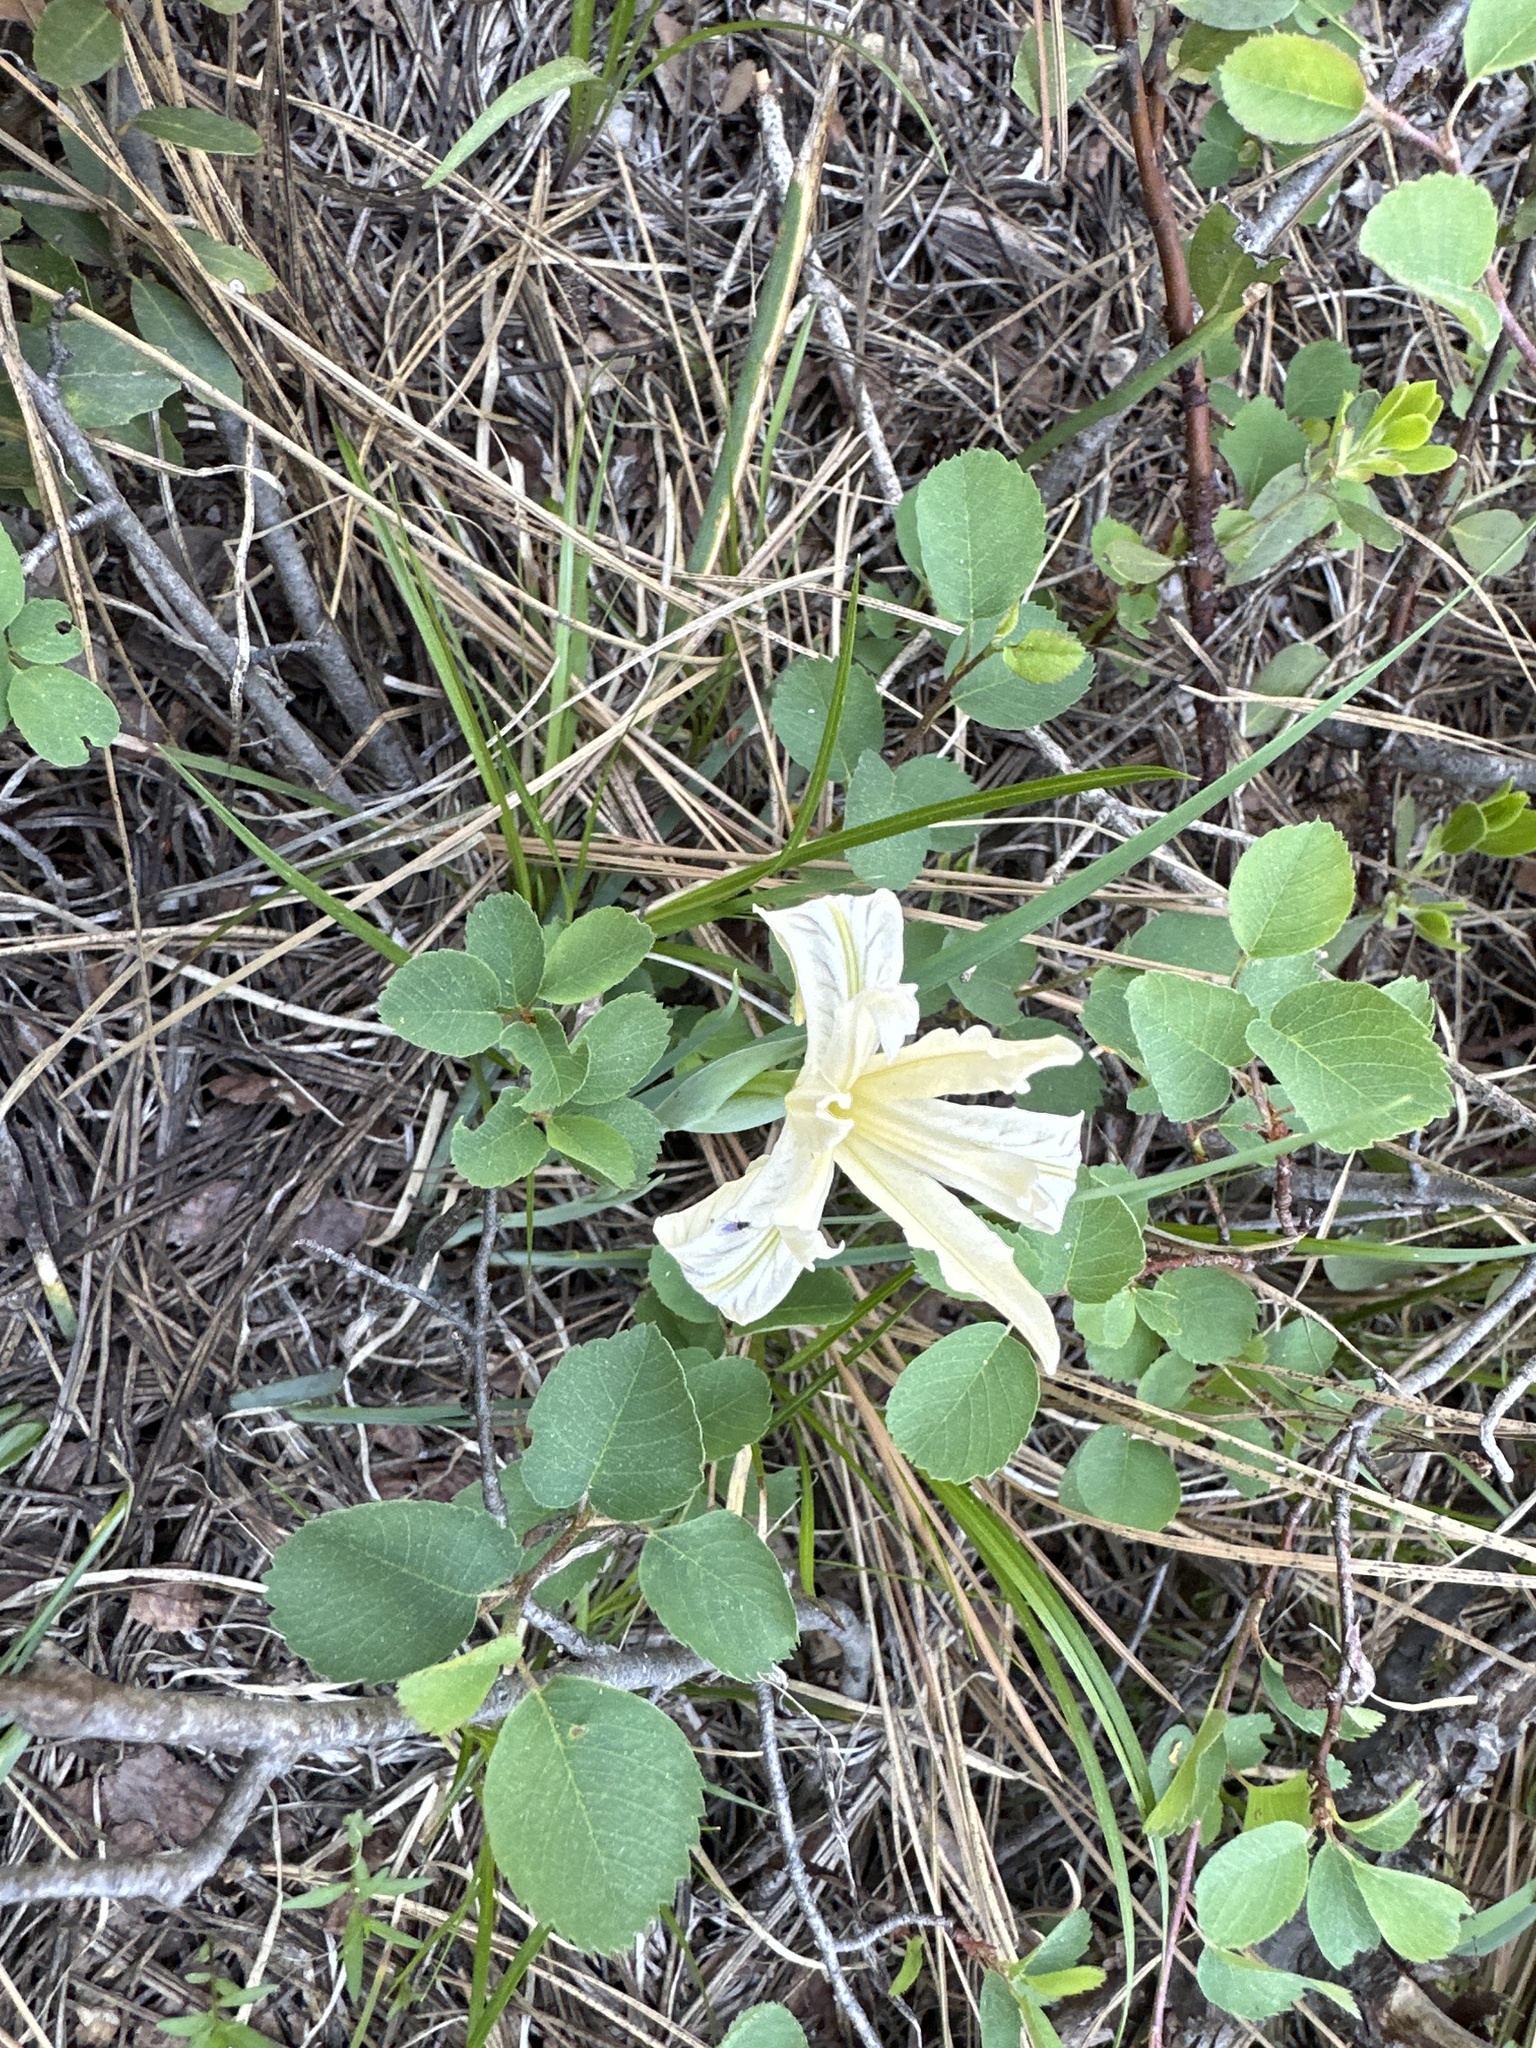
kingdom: Plantae
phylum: Tracheophyta
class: Liliopsida
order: Asparagales
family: Iridaceae
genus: Iris
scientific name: Iris tenuissima
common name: Long-tube iris
